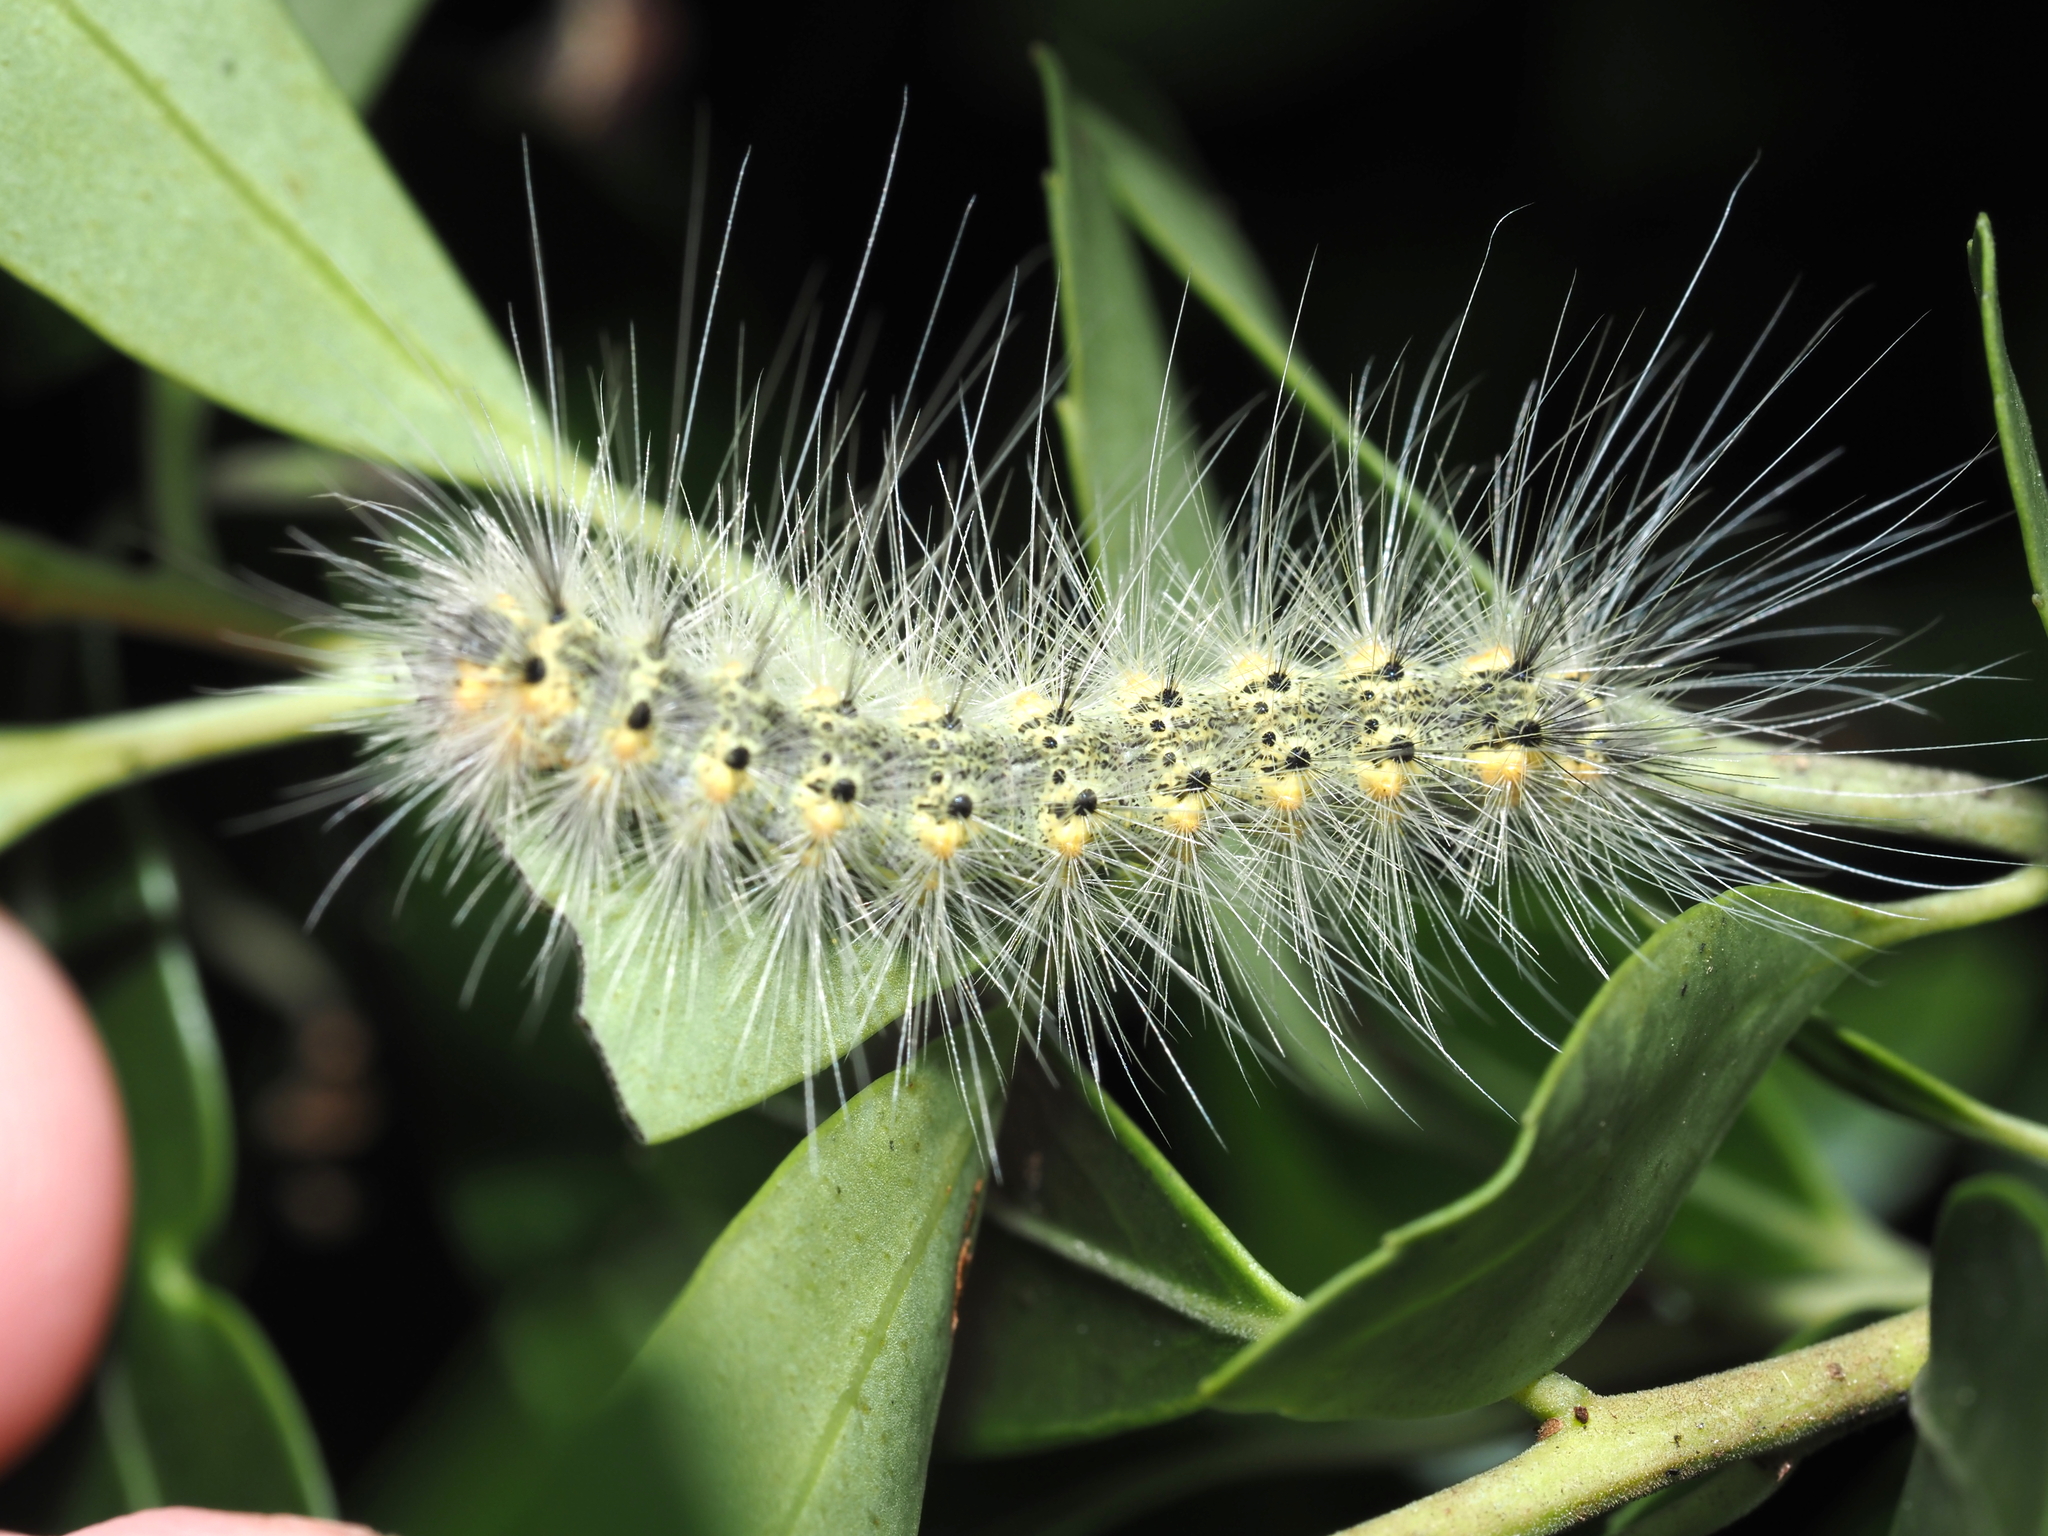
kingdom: Animalia
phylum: Arthropoda
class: Insecta
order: Lepidoptera
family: Erebidae
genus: Hyphantria
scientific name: Hyphantria cunea
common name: American white moth
